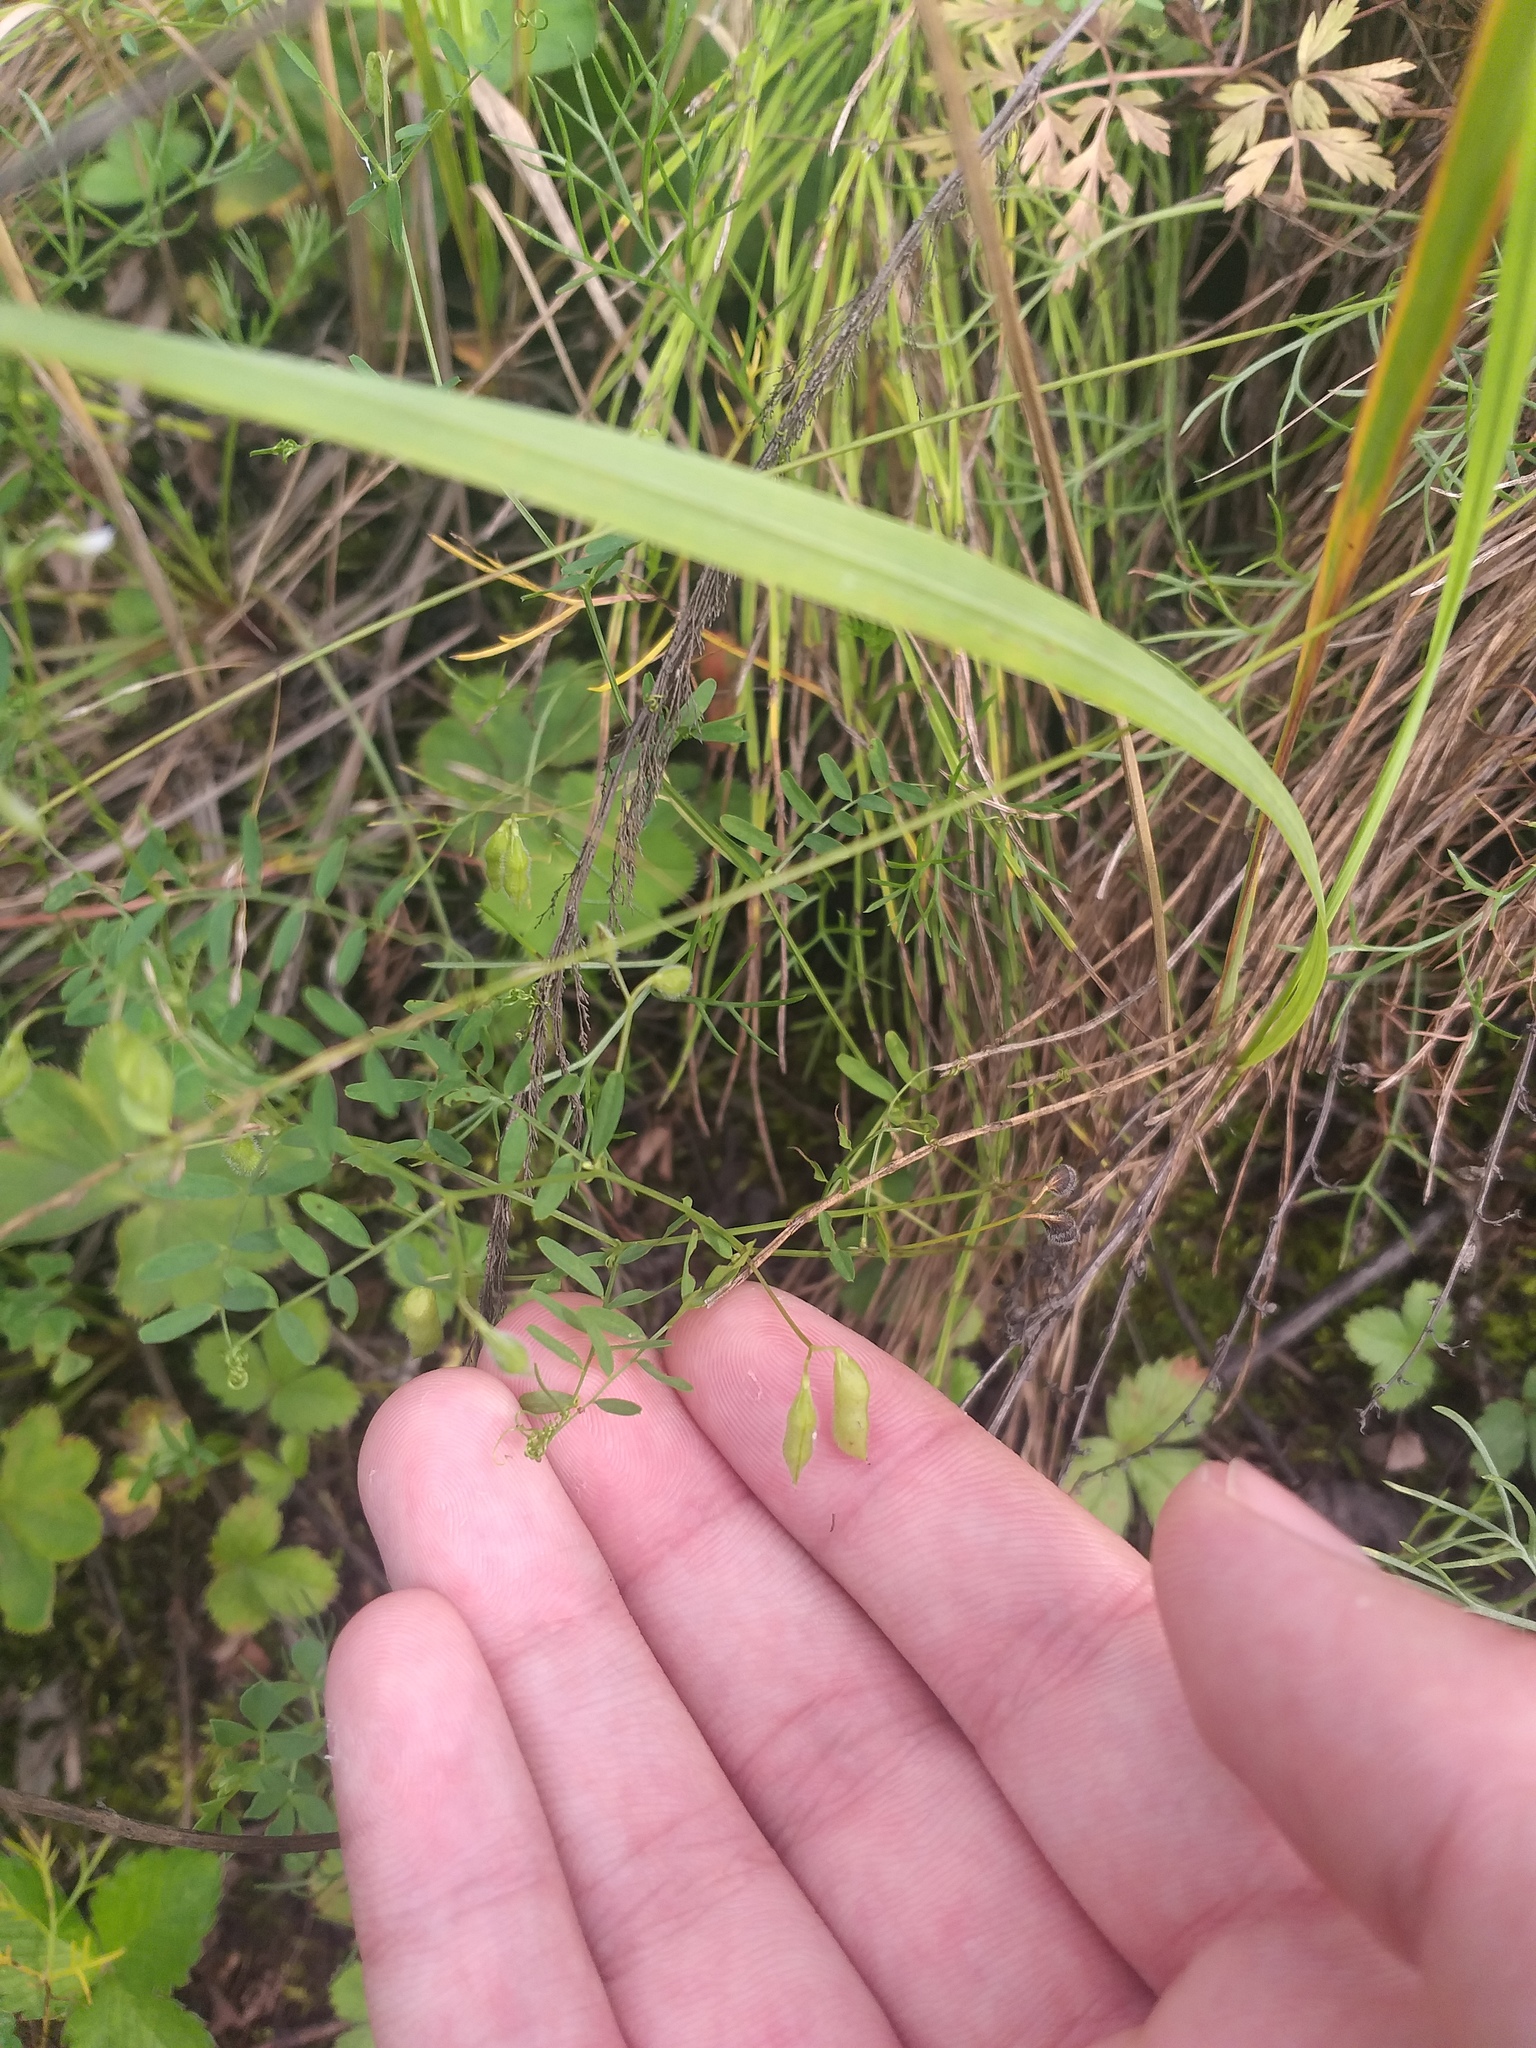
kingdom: Plantae
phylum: Tracheophyta
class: Magnoliopsida
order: Fabales
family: Fabaceae
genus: Vicia
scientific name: Vicia hirsuta
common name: Tiny vetch
